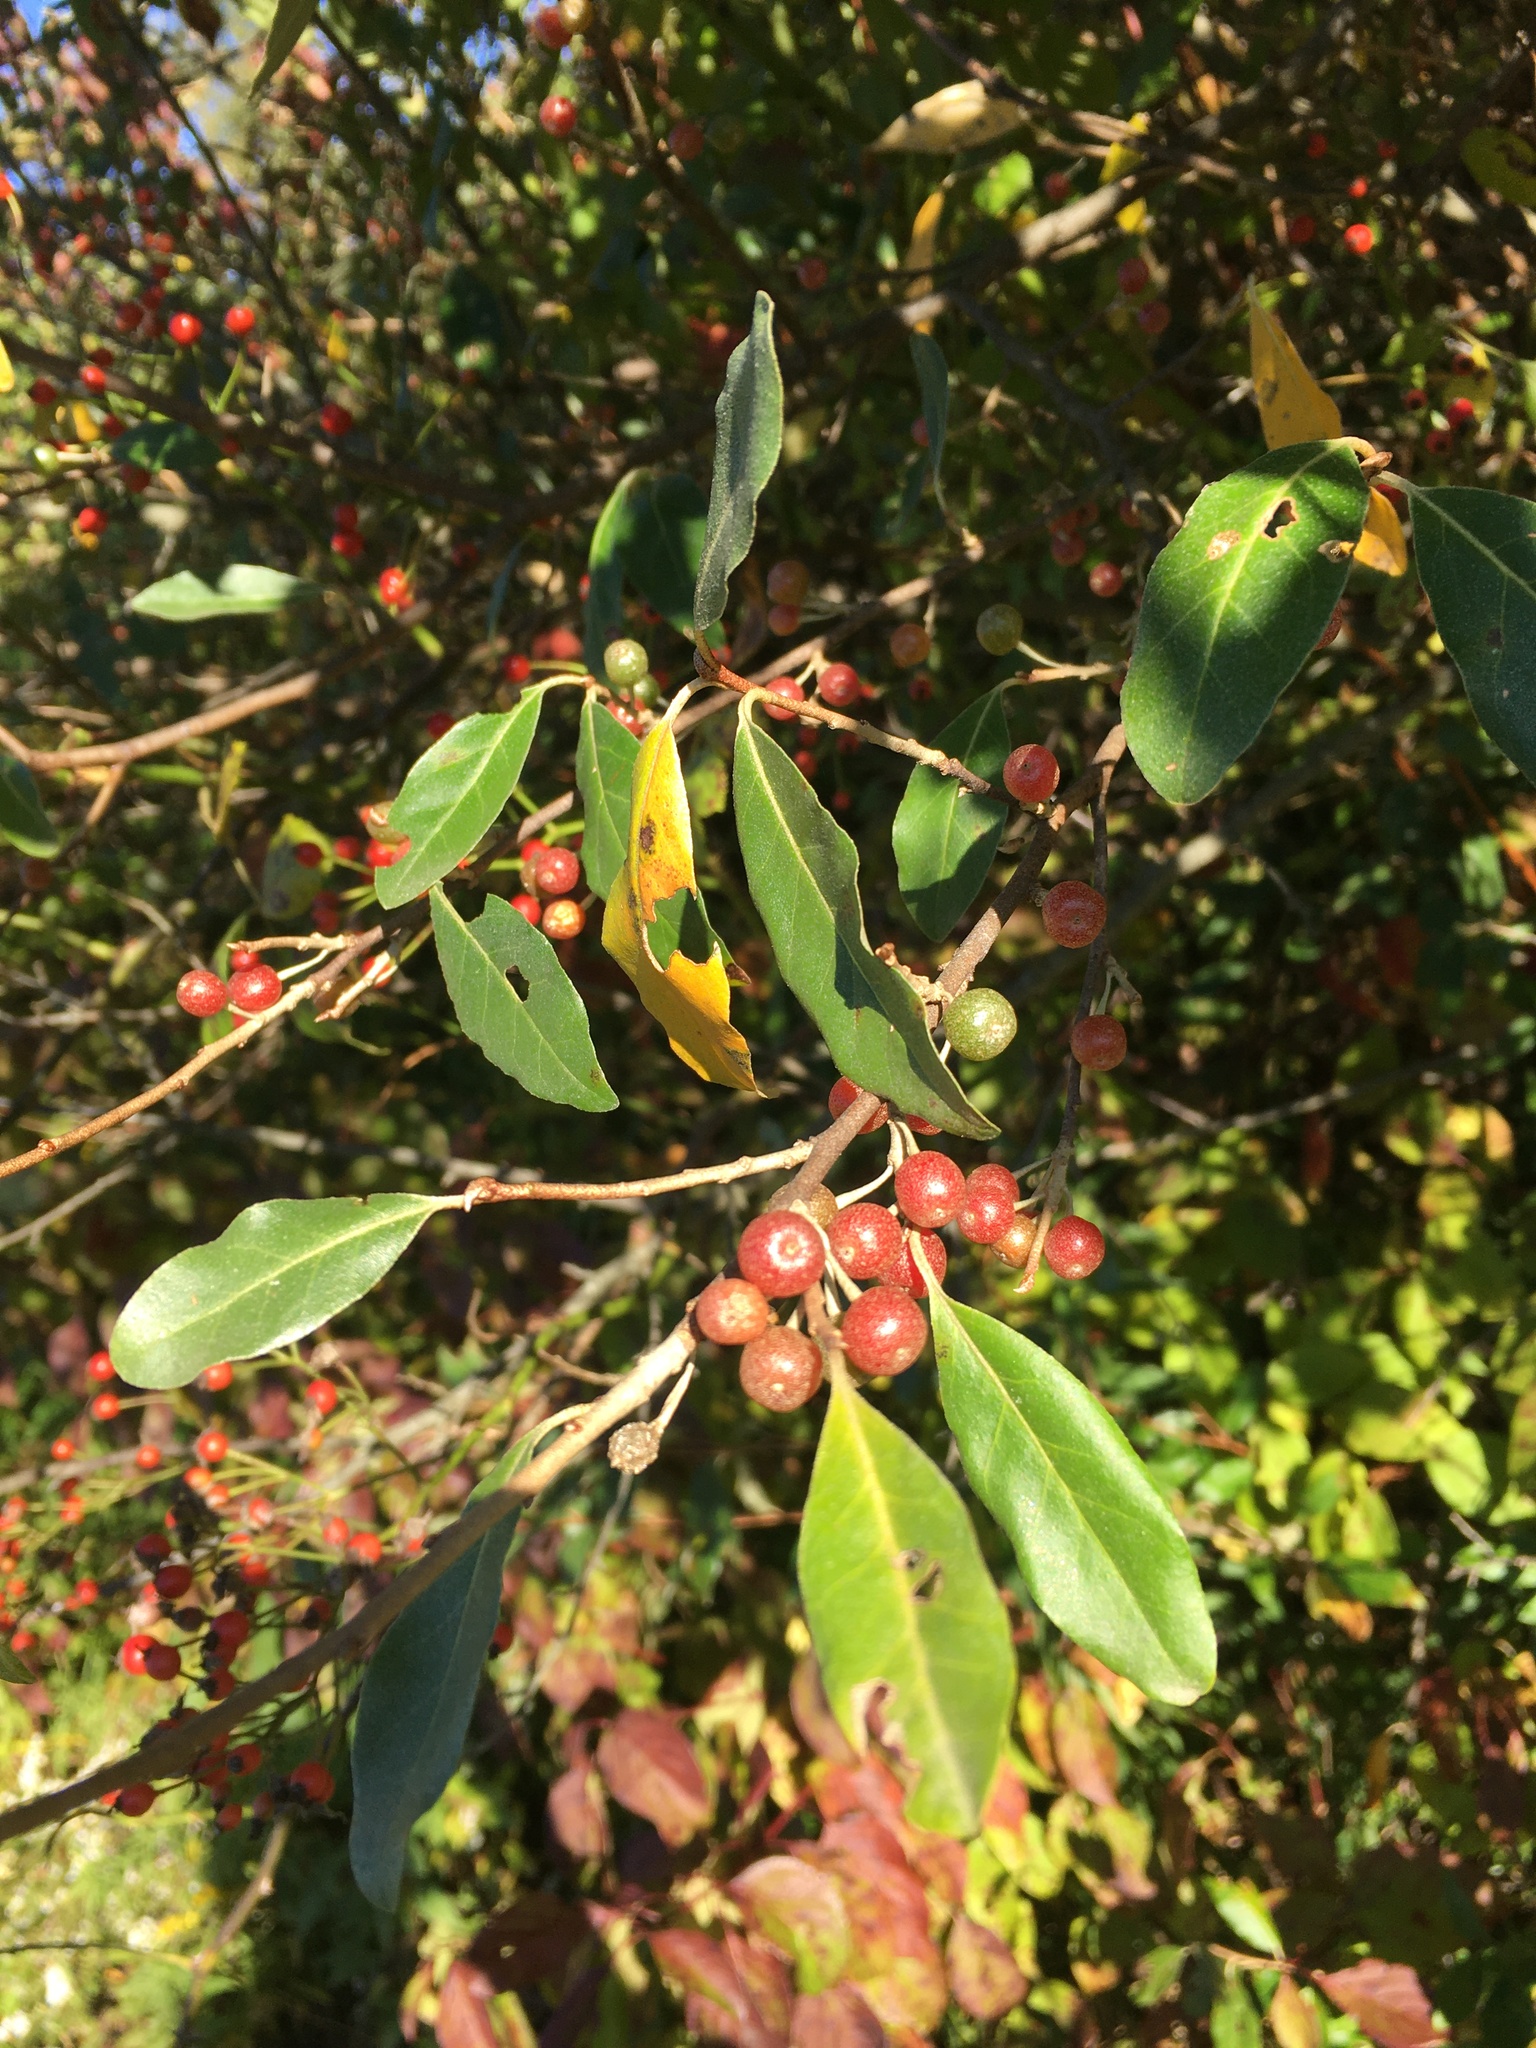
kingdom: Plantae
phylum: Tracheophyta
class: Magnoliopsida
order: Rosales
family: Elaeagnaceae
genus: Elaeagnus
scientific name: Elaeagnus umbellata
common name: Autumn olive
